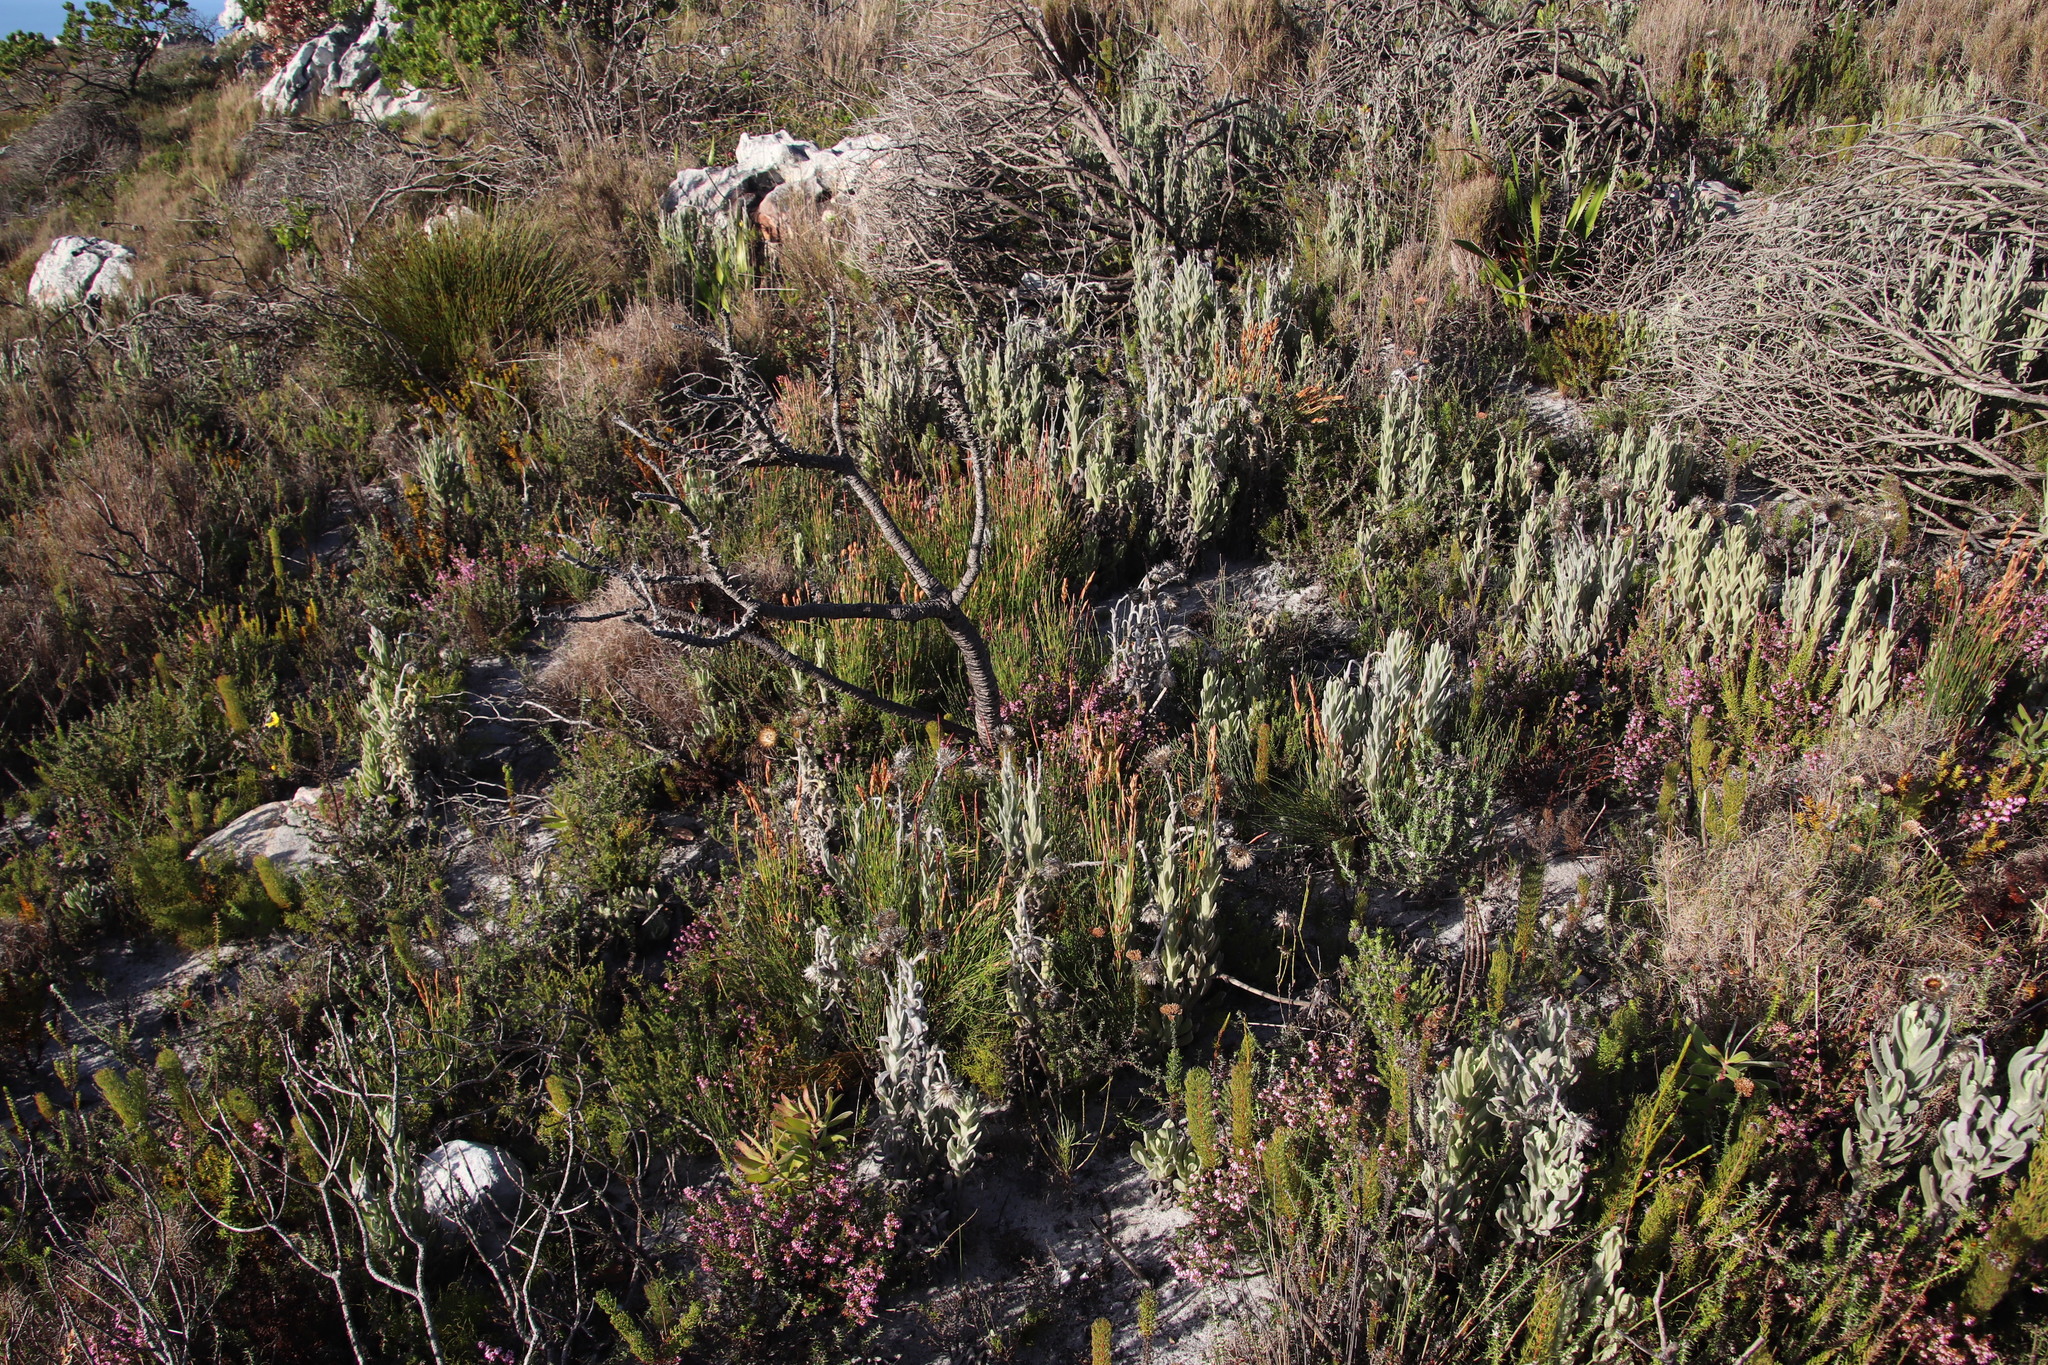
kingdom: Plantae
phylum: Tracheophyta
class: Liliopsida
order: Poales
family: Restionaceae
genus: Elegia
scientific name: Elegia stipularis
